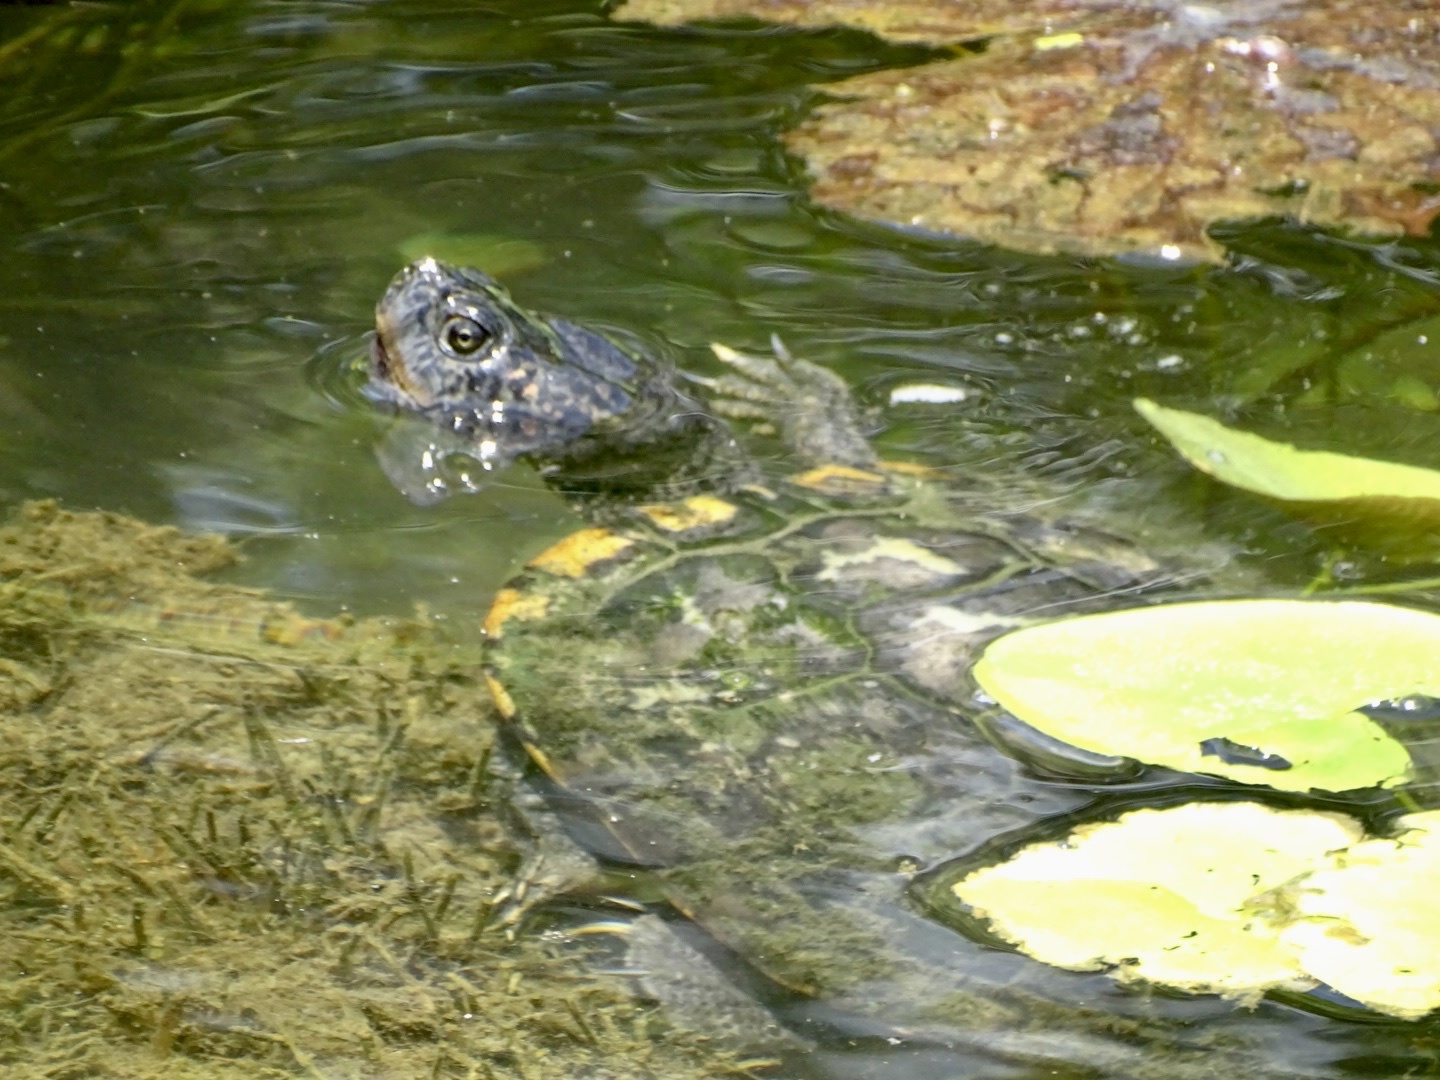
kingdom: Animalia
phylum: Chordata
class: Testudines
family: Emydidae
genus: Trachemys
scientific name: Trachemys scripta
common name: Slider
